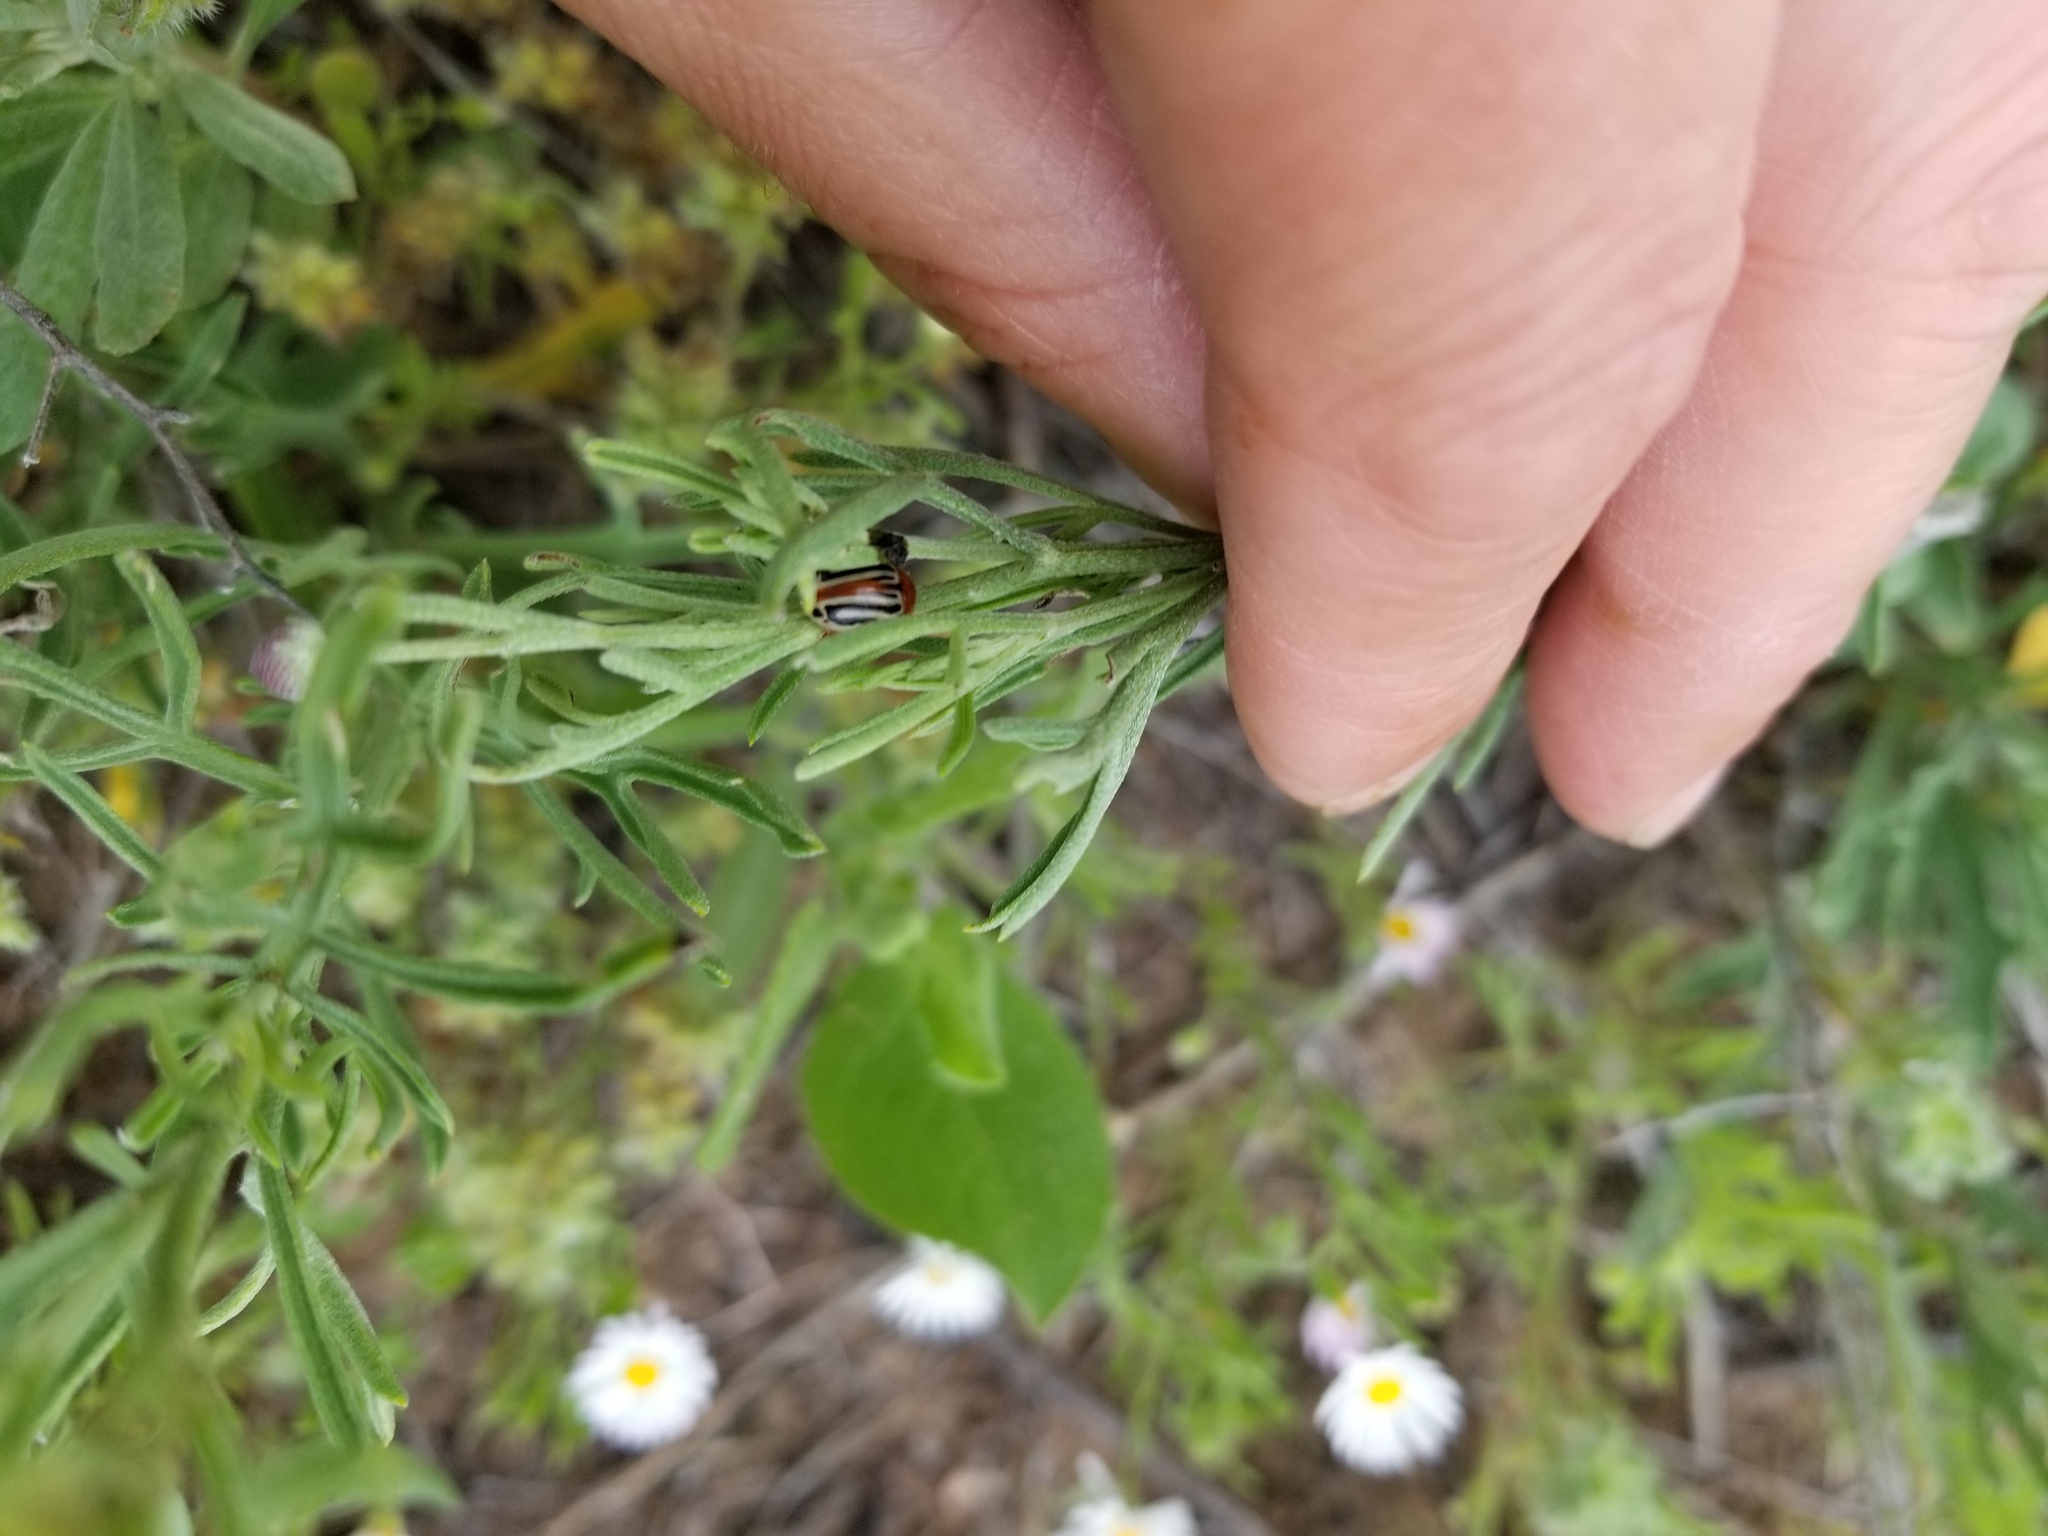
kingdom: Animalia
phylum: Arthropoda
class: Insecta
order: Coleoptera
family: Chrysomelidae
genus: Calligrapha
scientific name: Calligrapha
